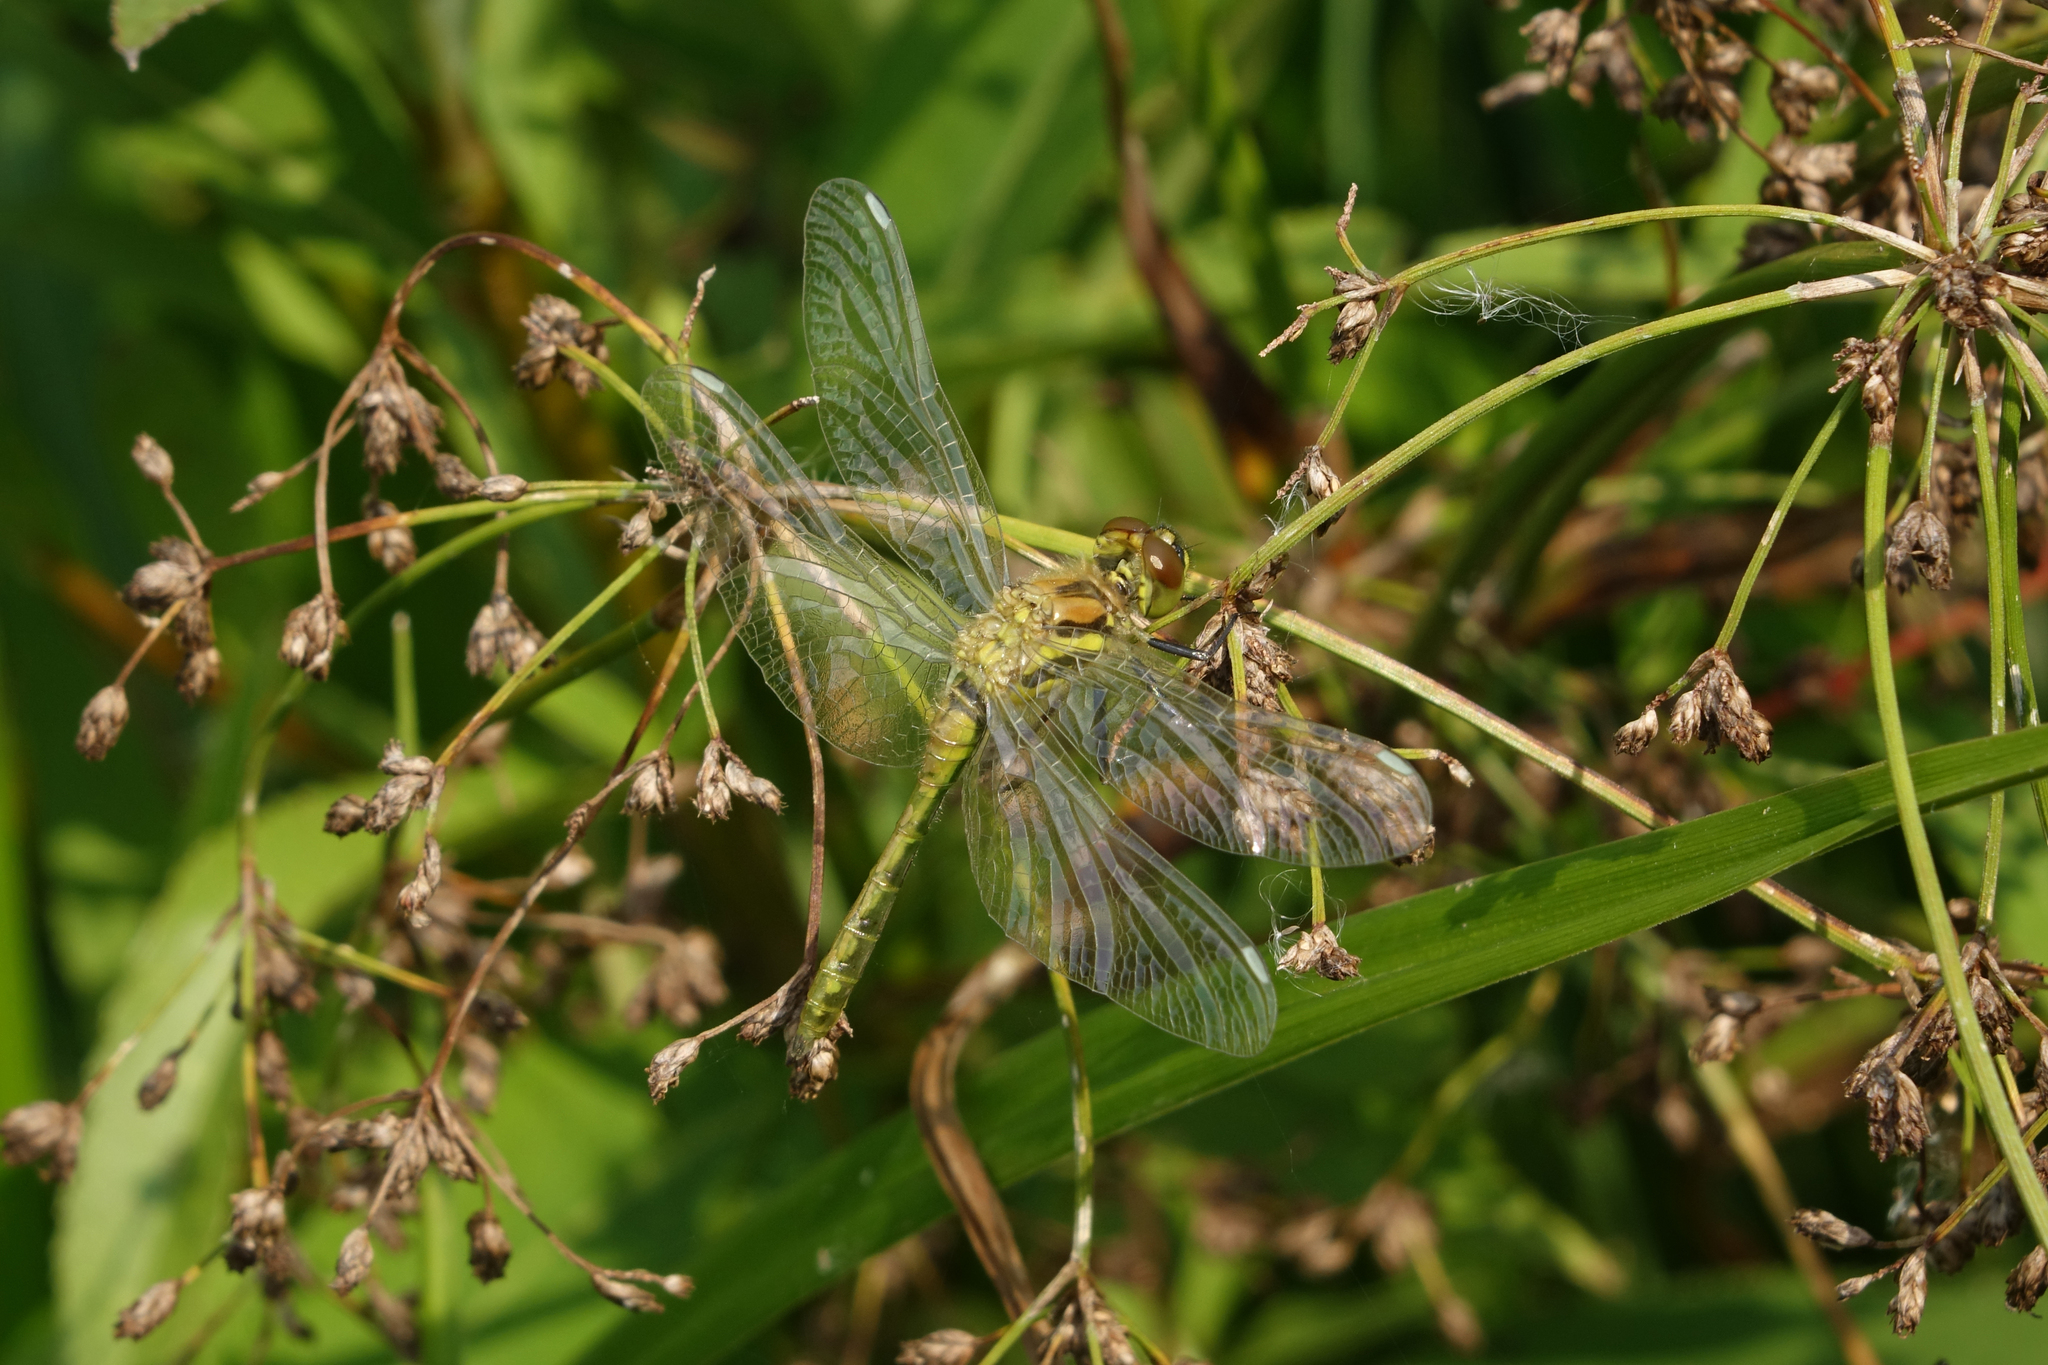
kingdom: Animalia
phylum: Arthropoda
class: Insecta
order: Odonata
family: Libellulidae
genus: Sympetrum
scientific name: Sympetrum danae
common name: Black darter
